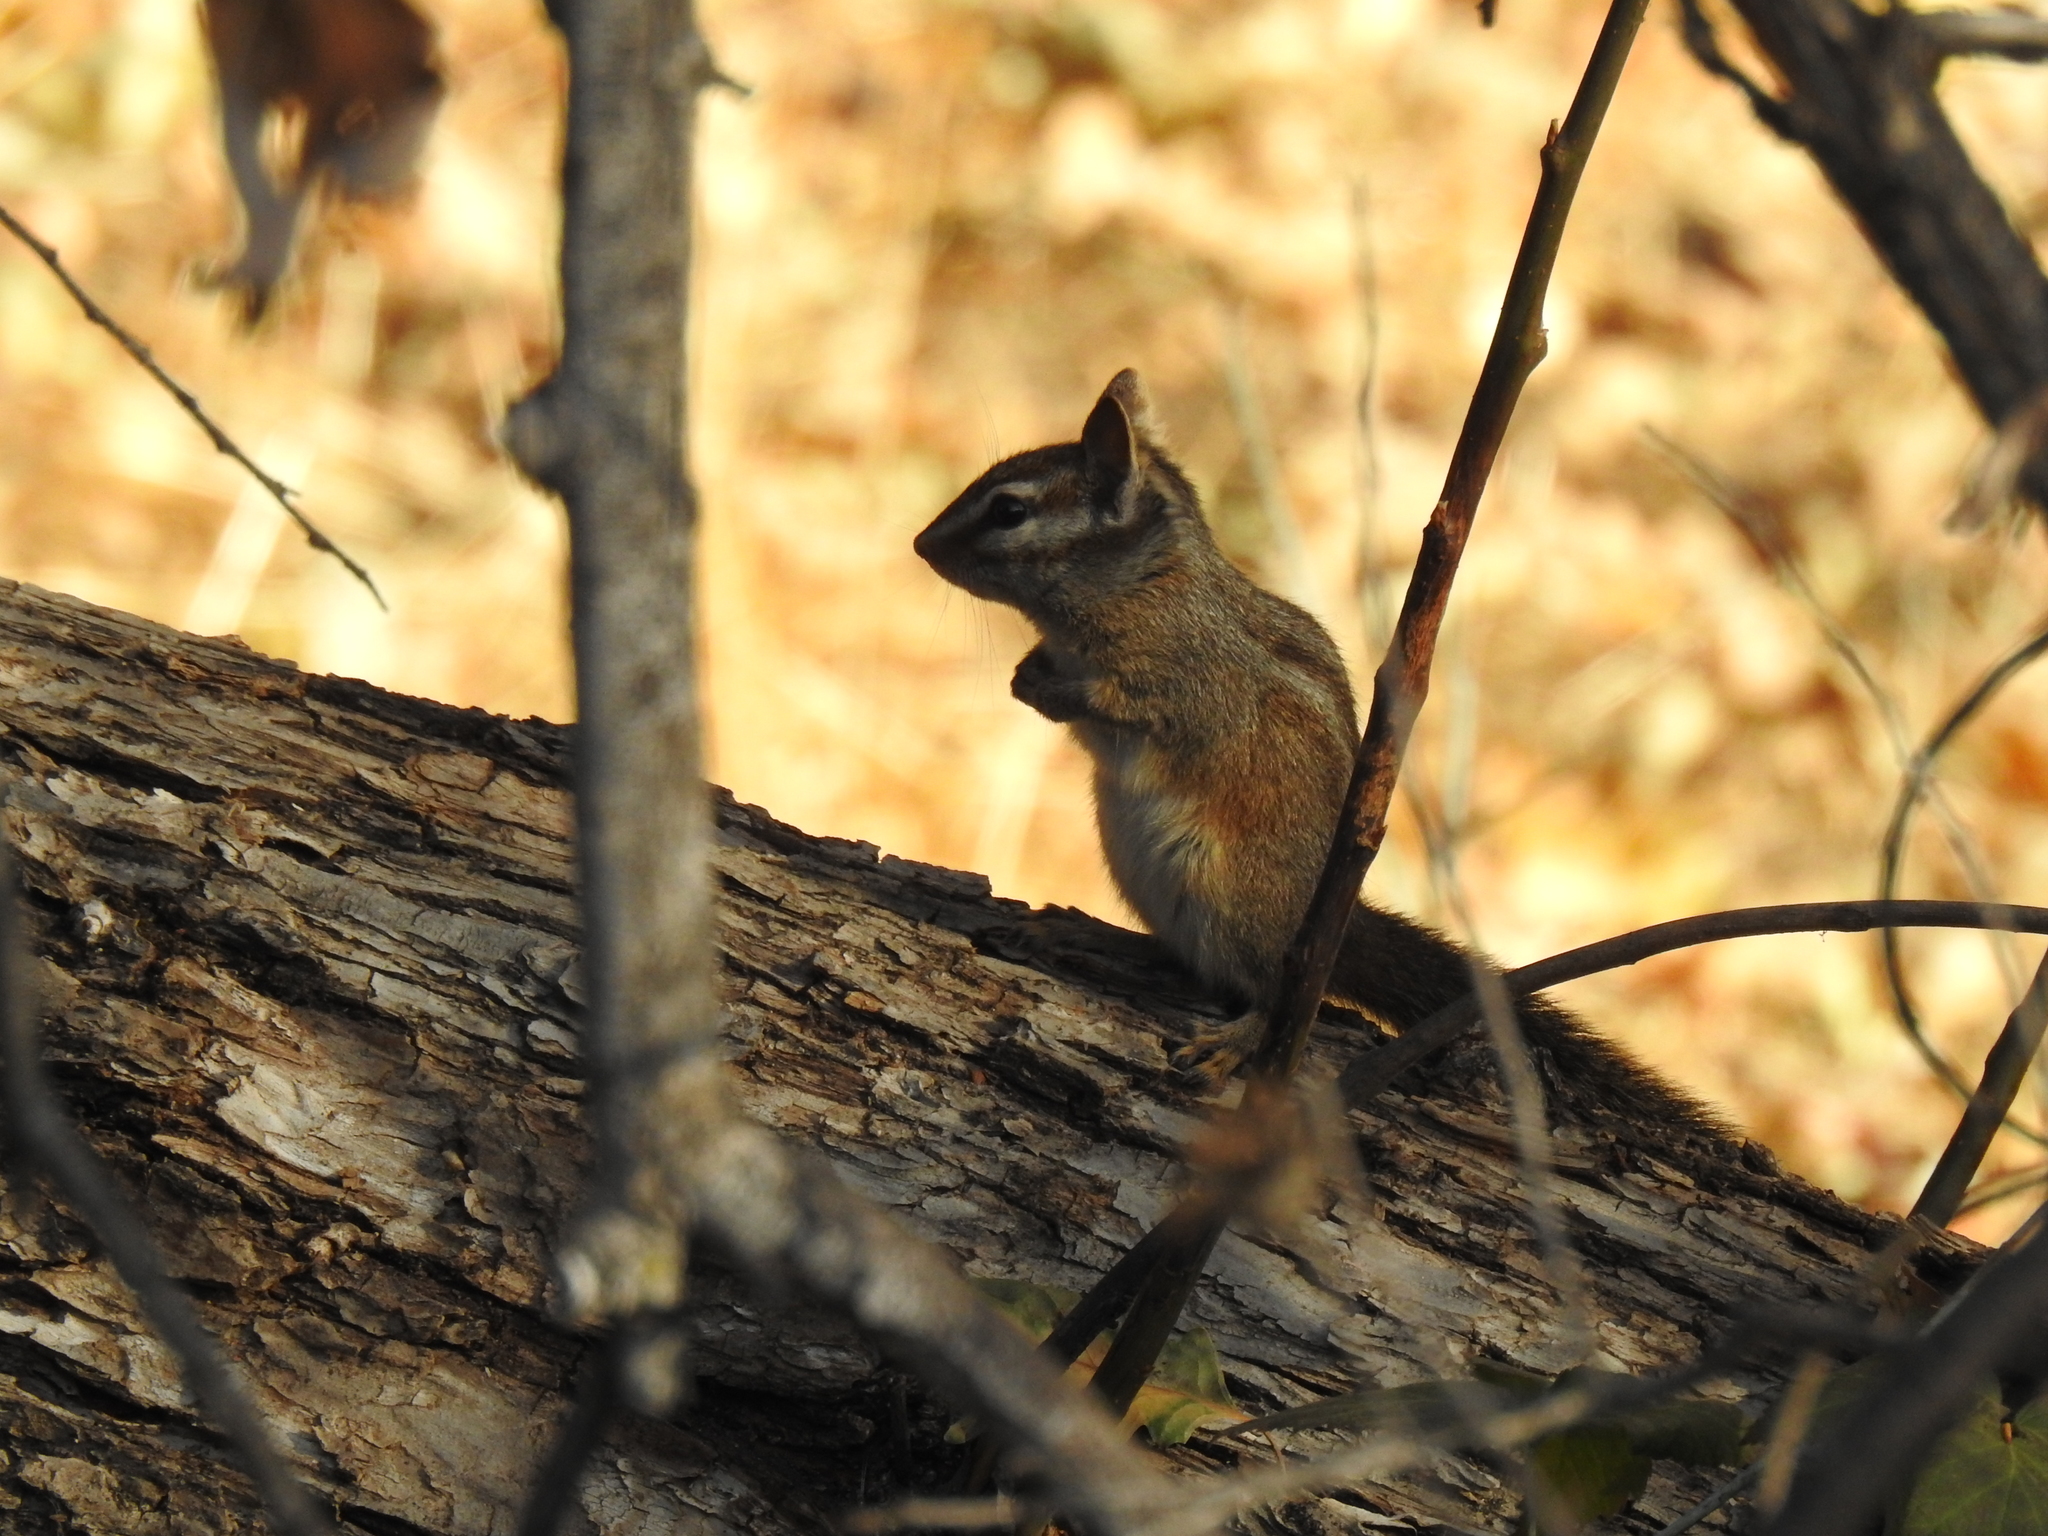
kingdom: Animalia
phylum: Chordata
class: Mammalia
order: Rodentia
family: Sciuridae
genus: Tamias
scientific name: Tamias merriami
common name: Merriam's chipmunk
